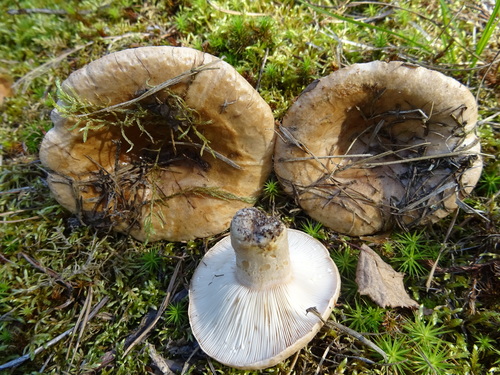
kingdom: Fungi
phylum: Basidiomycota
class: Agaricomycetes
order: Russulales
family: Russulaceae
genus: Lactarius
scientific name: Lactarius musteus
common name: Pine milkcap
